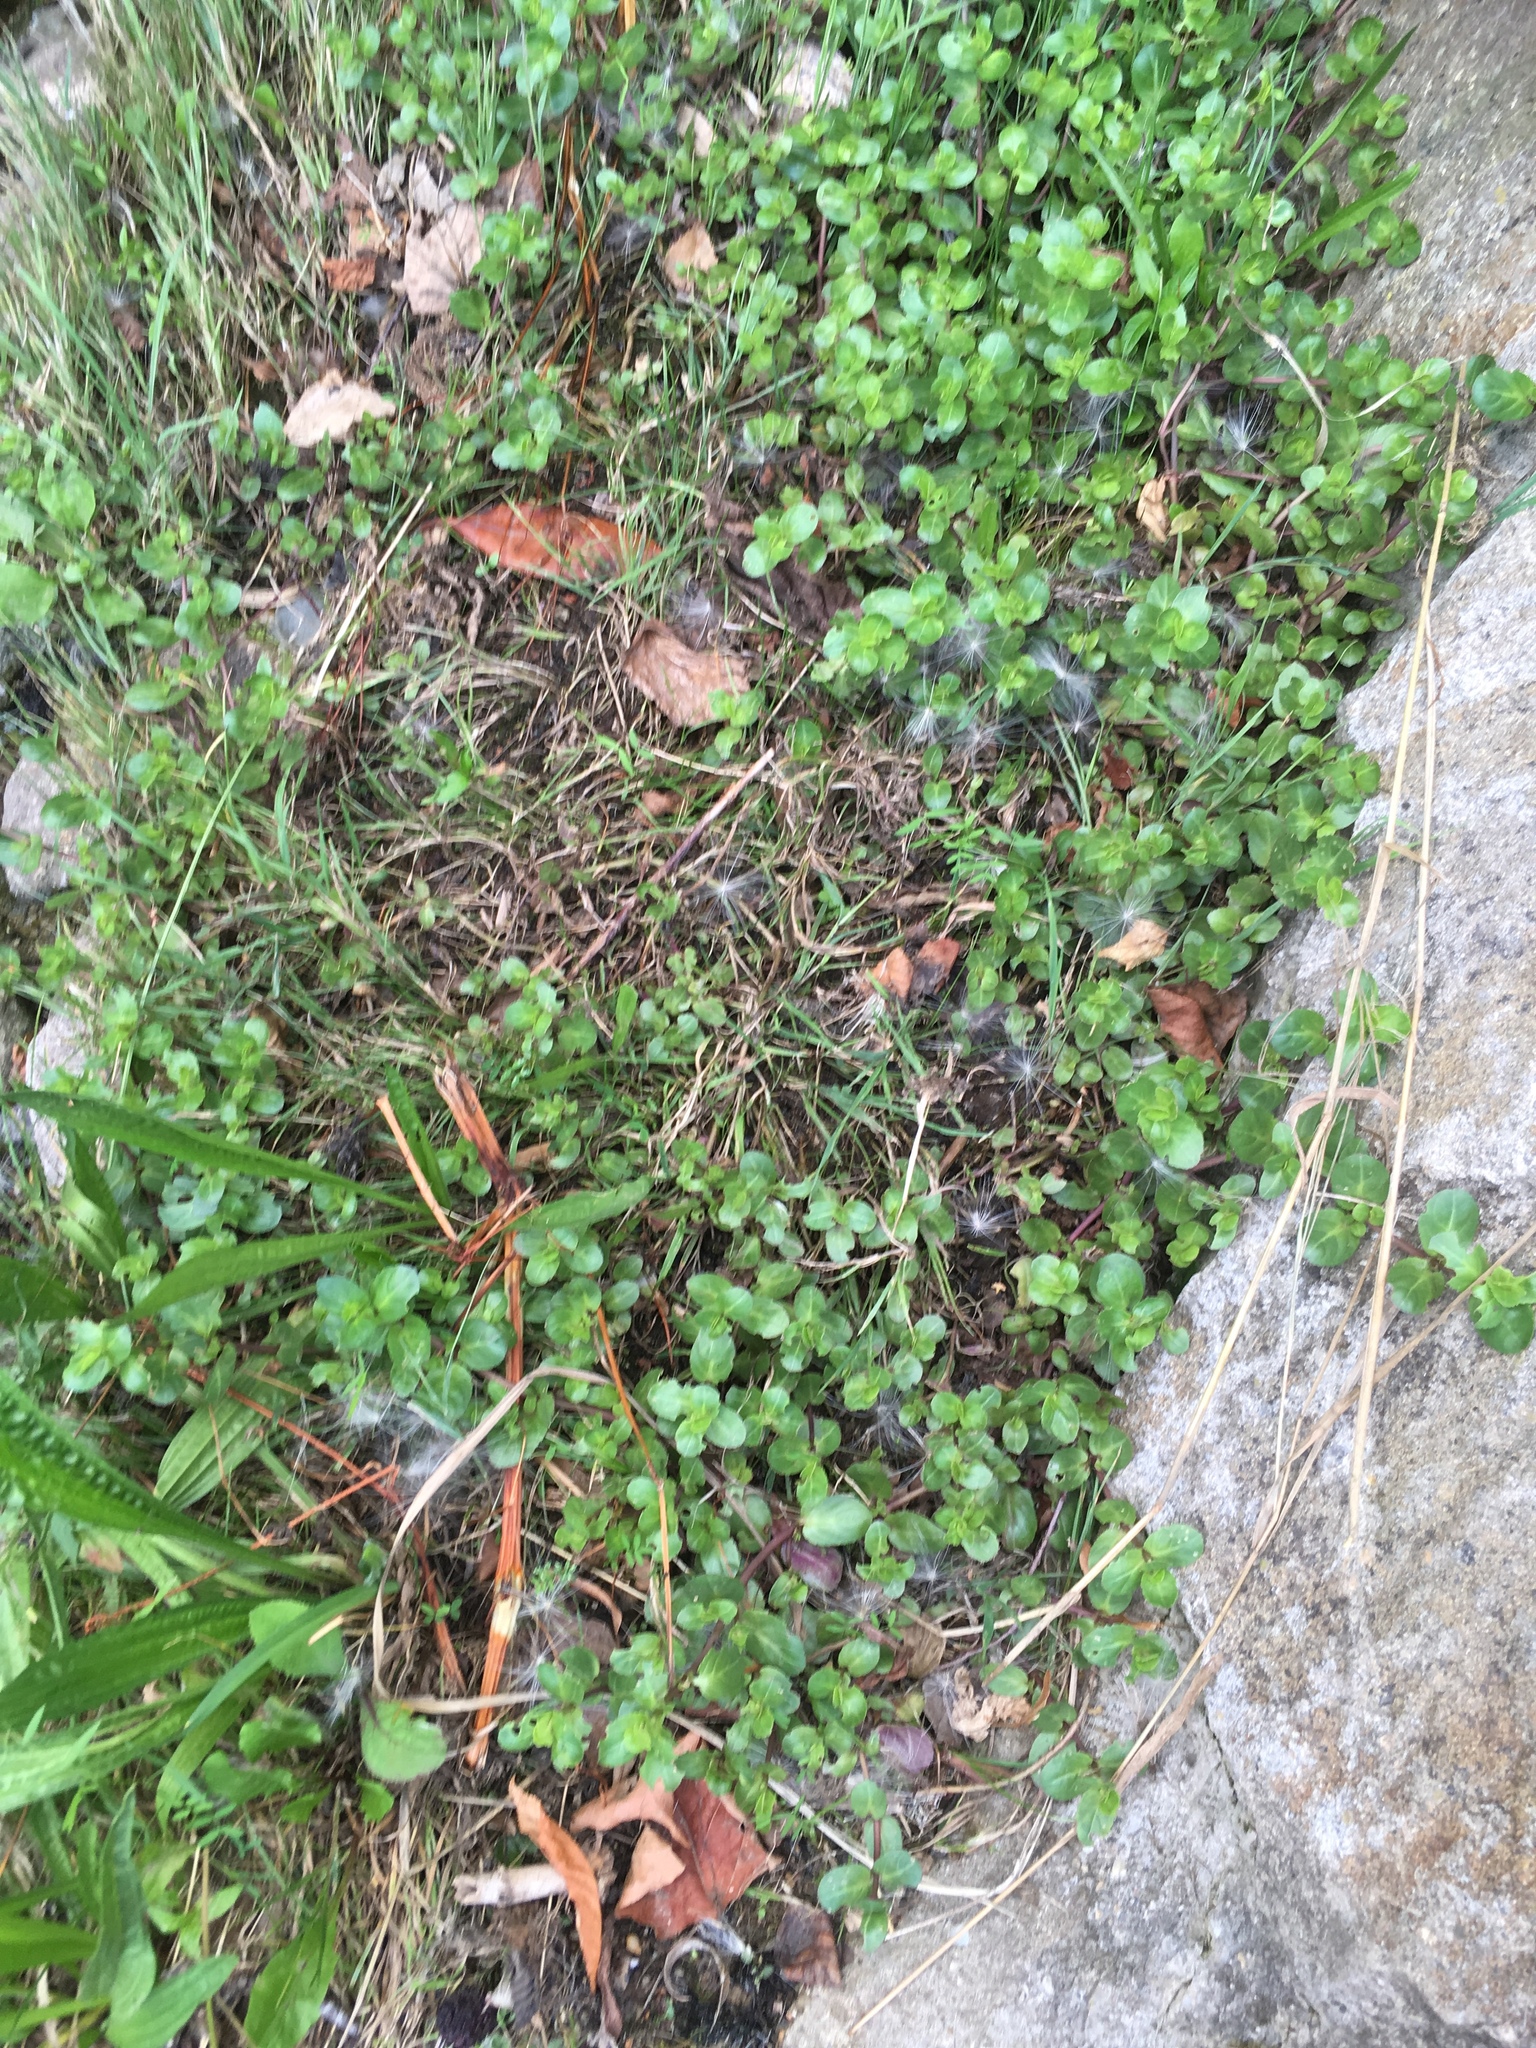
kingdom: Plantae
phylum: Tracheophyta
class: Magnoliopsida
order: Lamiales
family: Plantaginaceae
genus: Veronica
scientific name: Veronica beccabunga
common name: Brooklime
